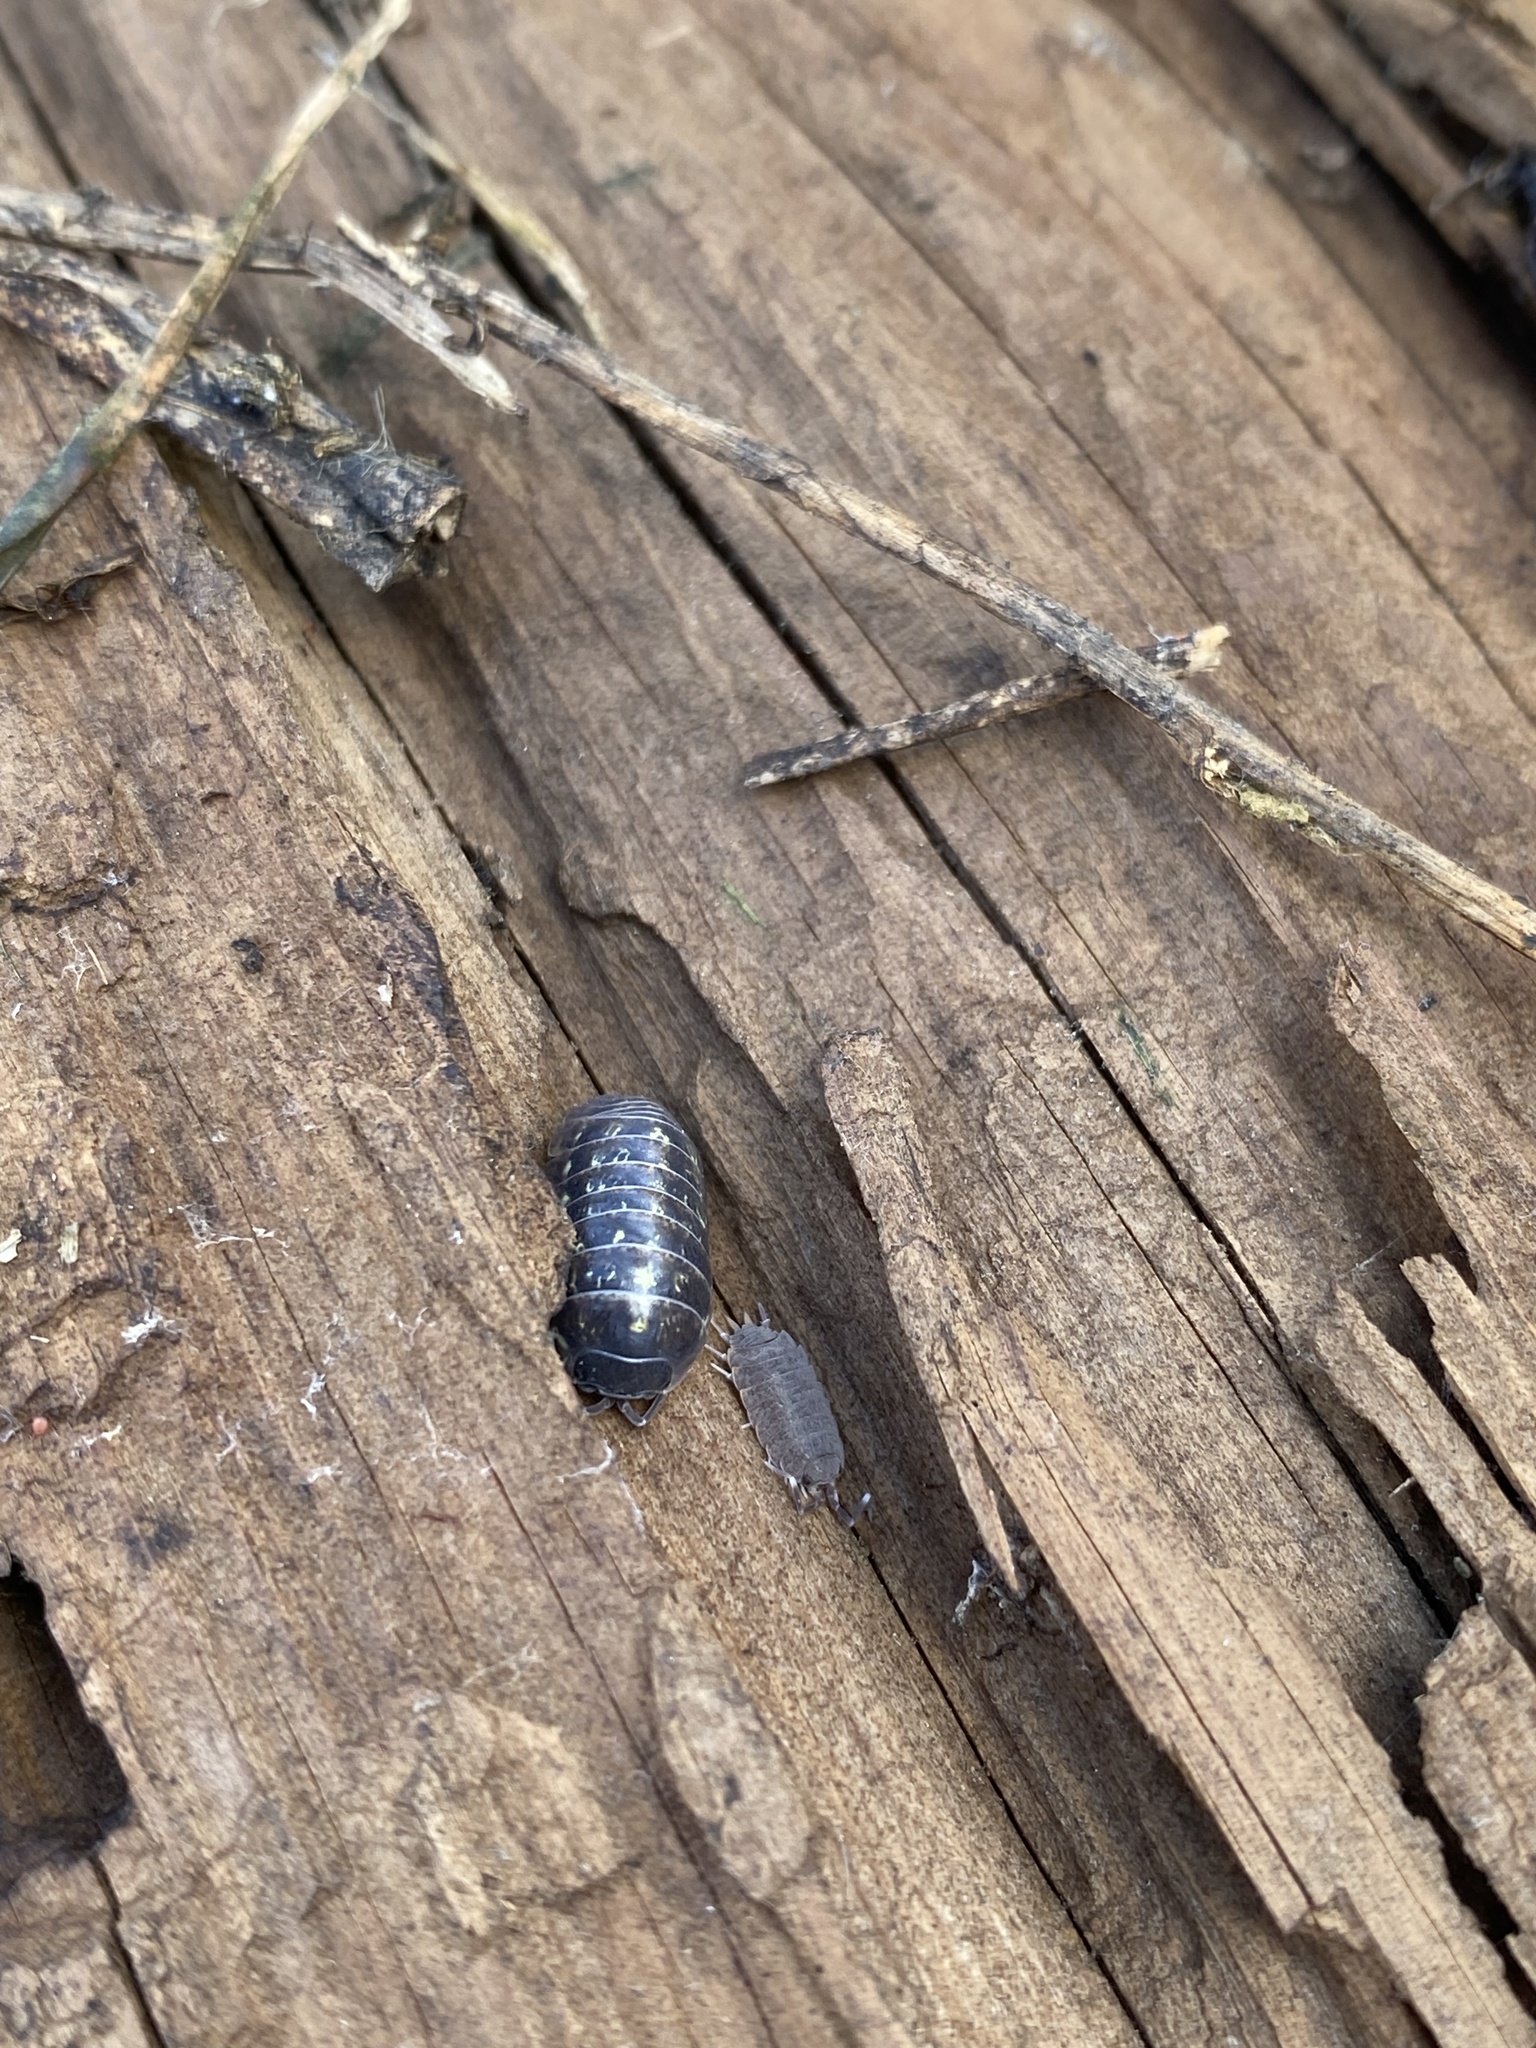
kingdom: Animalia
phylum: Arthropoda
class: Malacostraca
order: Isopoda
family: Armadillidiidae
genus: Armadillidium
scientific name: Armadillidium vulgare
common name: Common pill woodlouse
